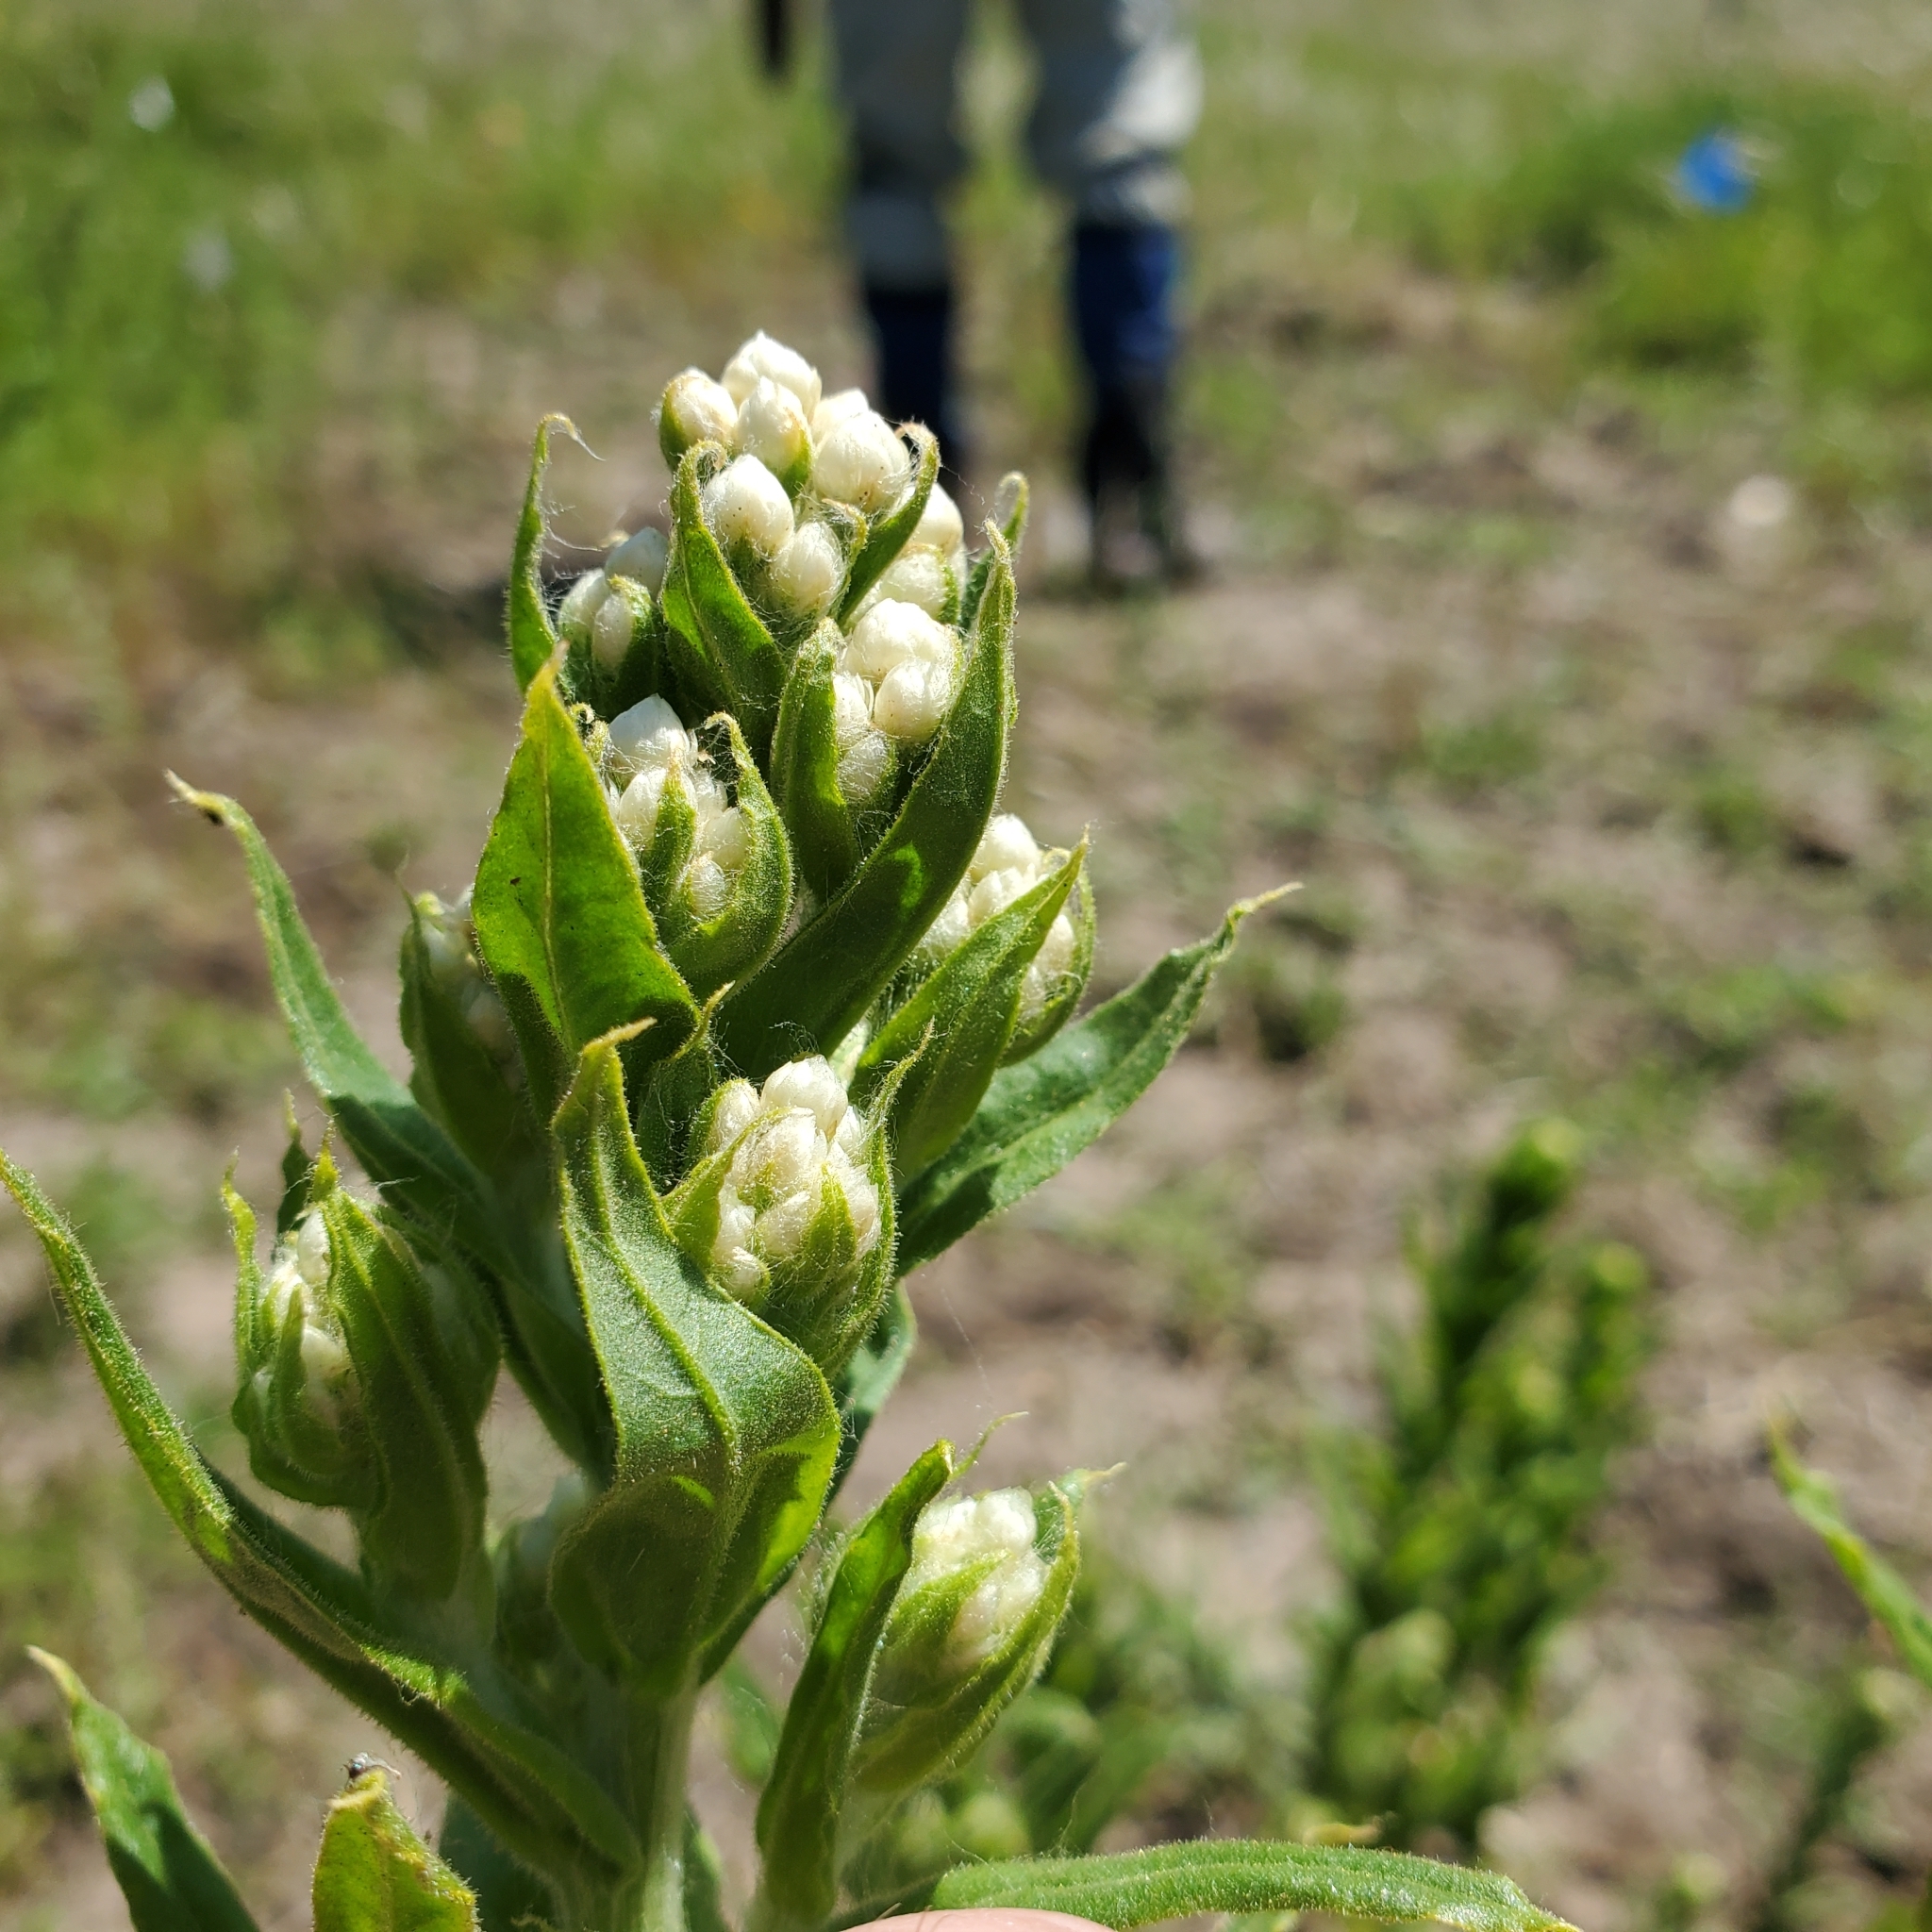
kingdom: Plantae
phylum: Tracheophyta
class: Magnoliopsida
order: Asterales
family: Asteraceae
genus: Pseudognaphalium
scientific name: Pseudognaphalium californicum
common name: California rabbit-tobacco
